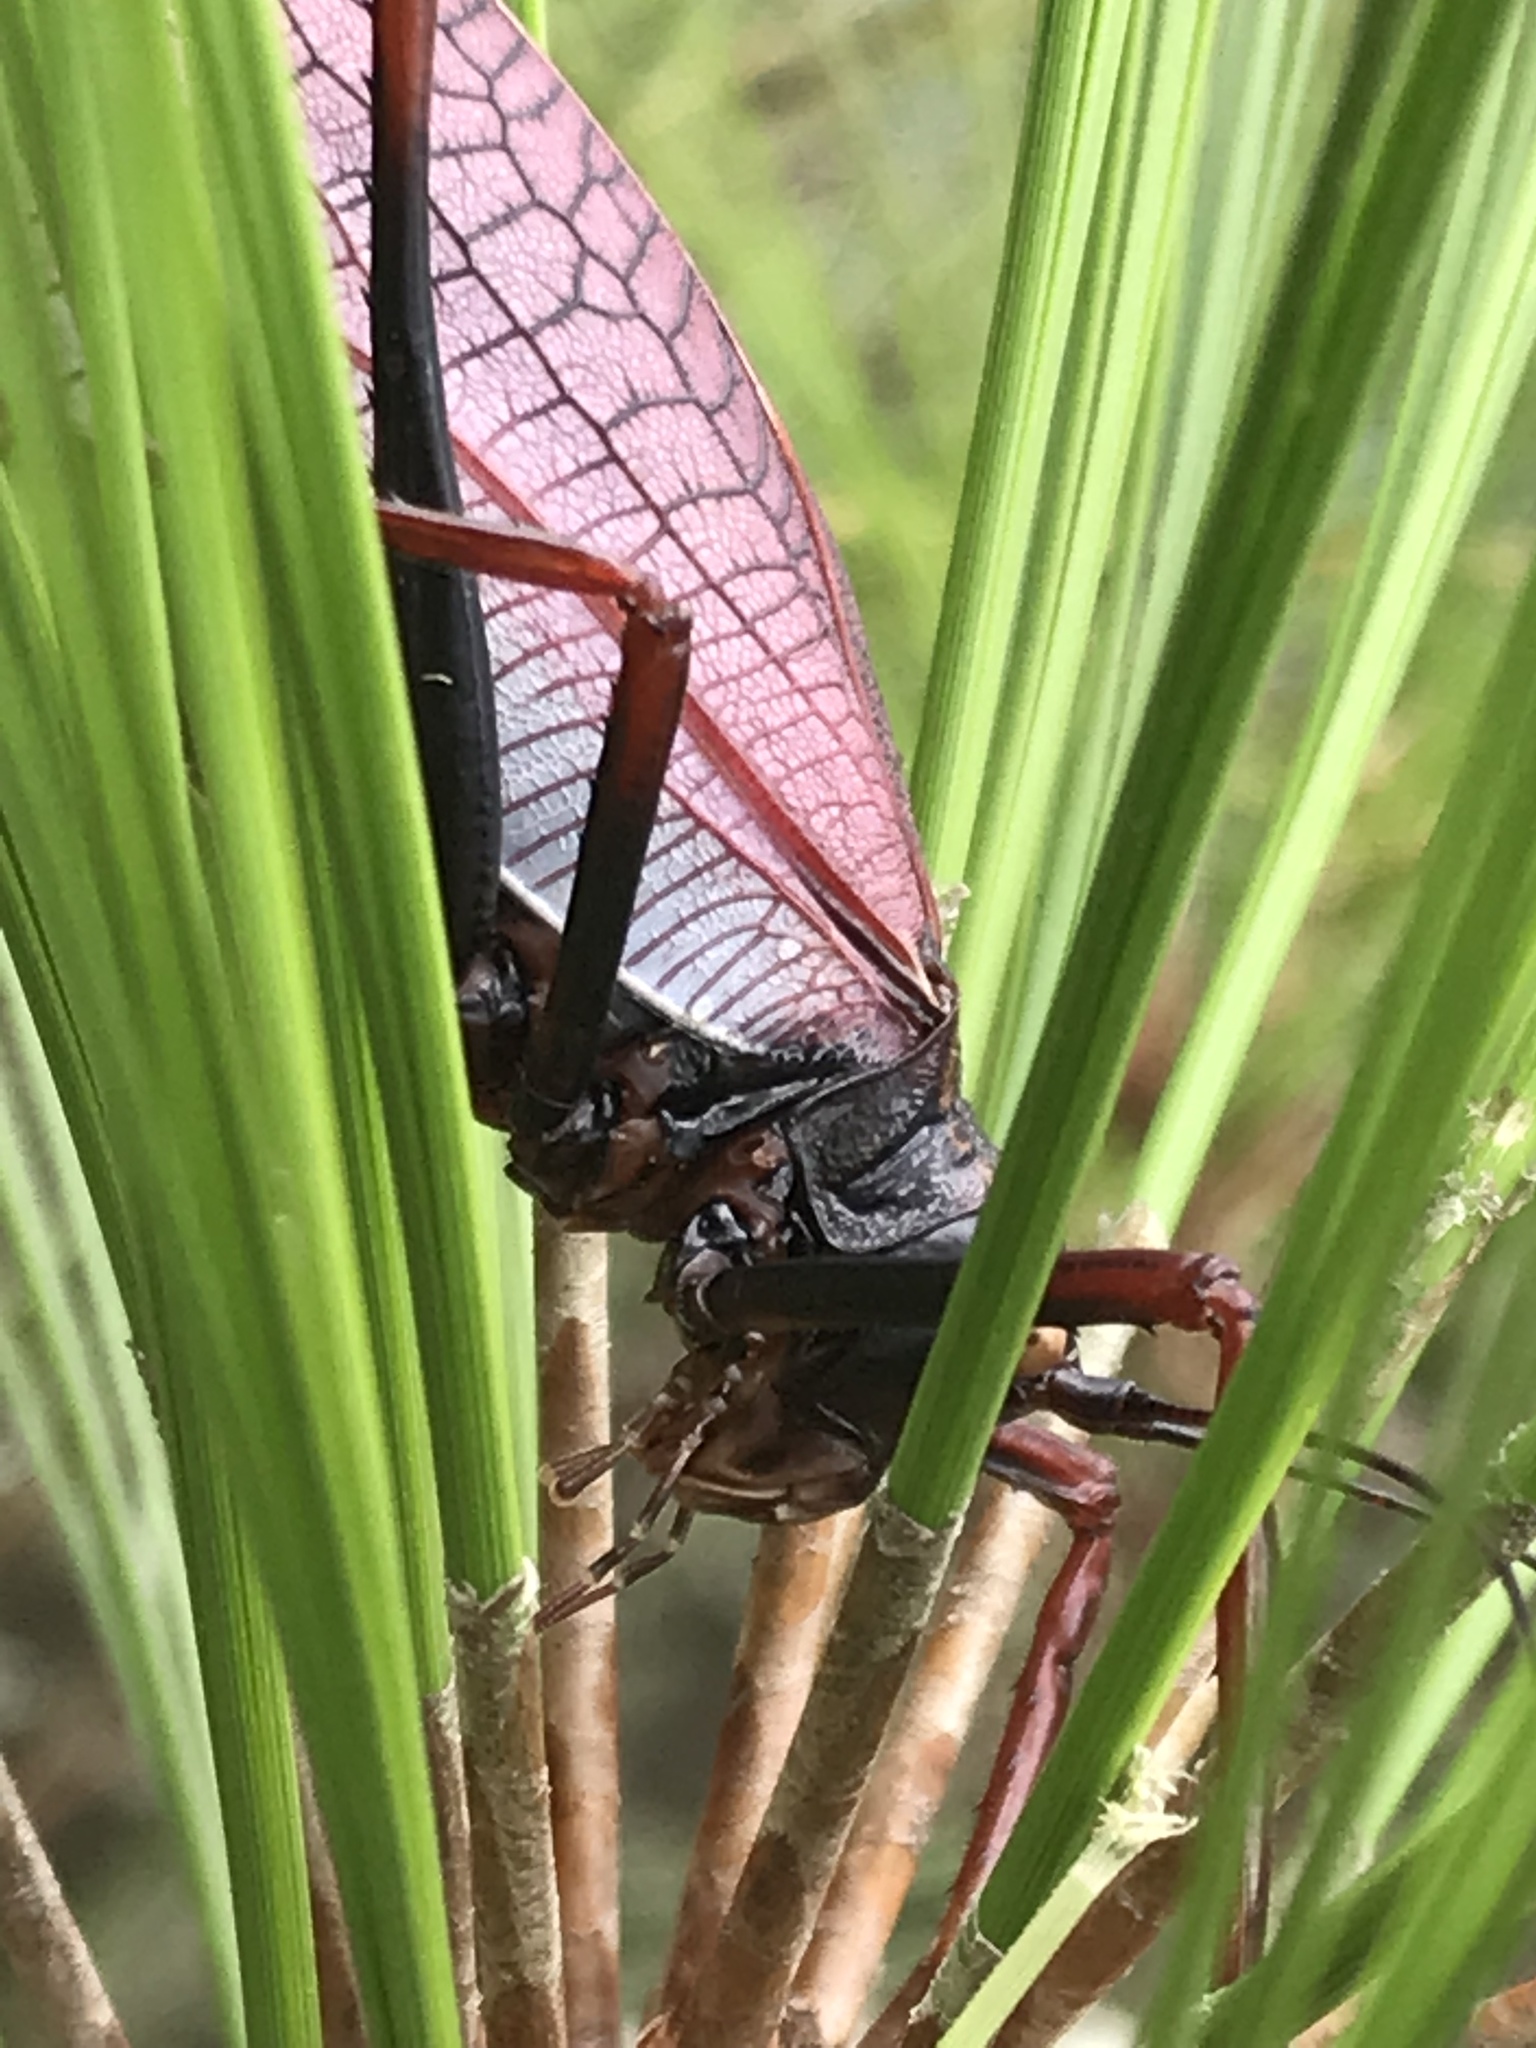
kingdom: Animalia
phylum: Arthropoda
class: Insecta
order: Orthoptera
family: Tettigoniidae
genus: Pterophylla
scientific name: Pterophylla beltrani
